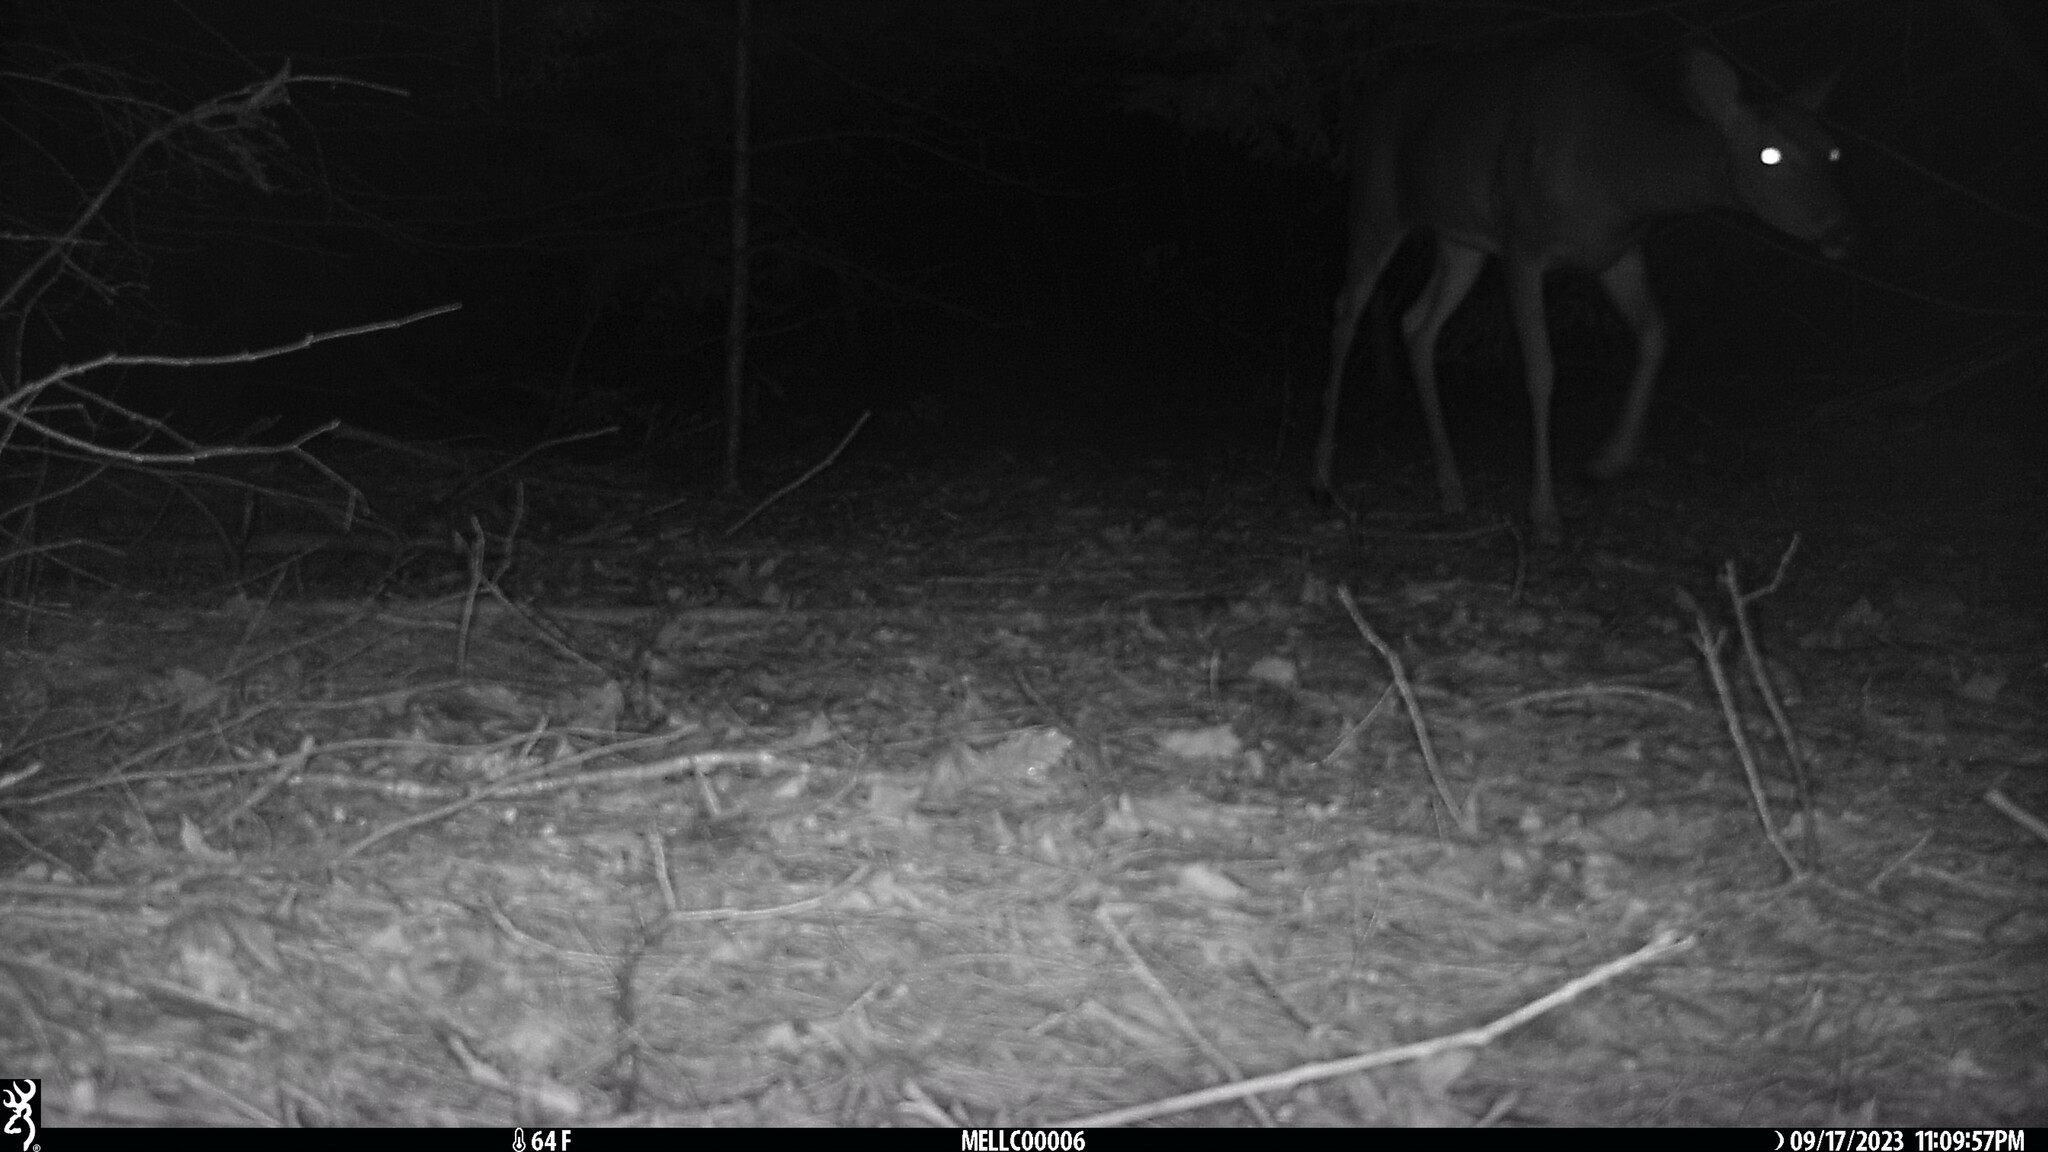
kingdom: Animalia
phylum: Chordata
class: Mammalia
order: Artiodactyla
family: Cervidae
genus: Odocoileus
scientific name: Odocoileus virginianus
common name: White-tailed deer
